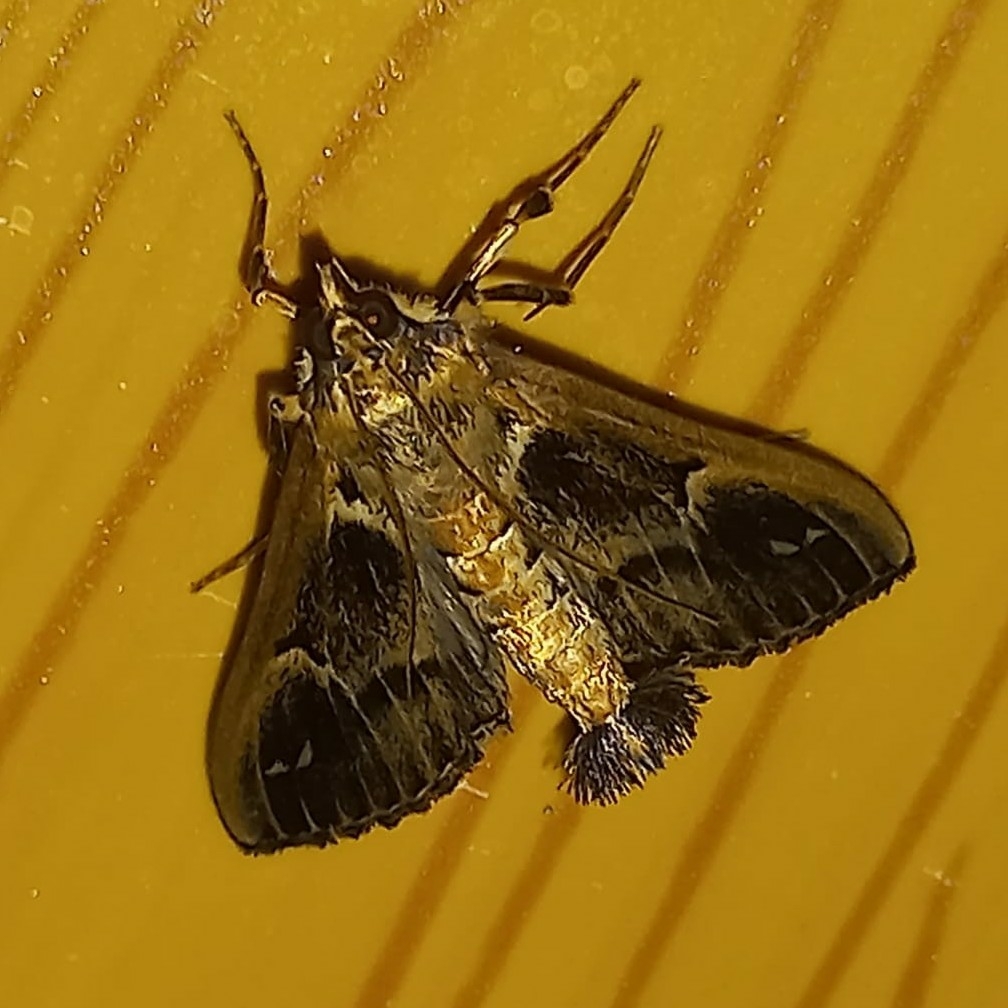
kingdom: Animalia
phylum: Arthropoda
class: Insecta
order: Lepidoptera
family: Crambidae
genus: Diaphania
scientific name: Diaphania costaricalis
